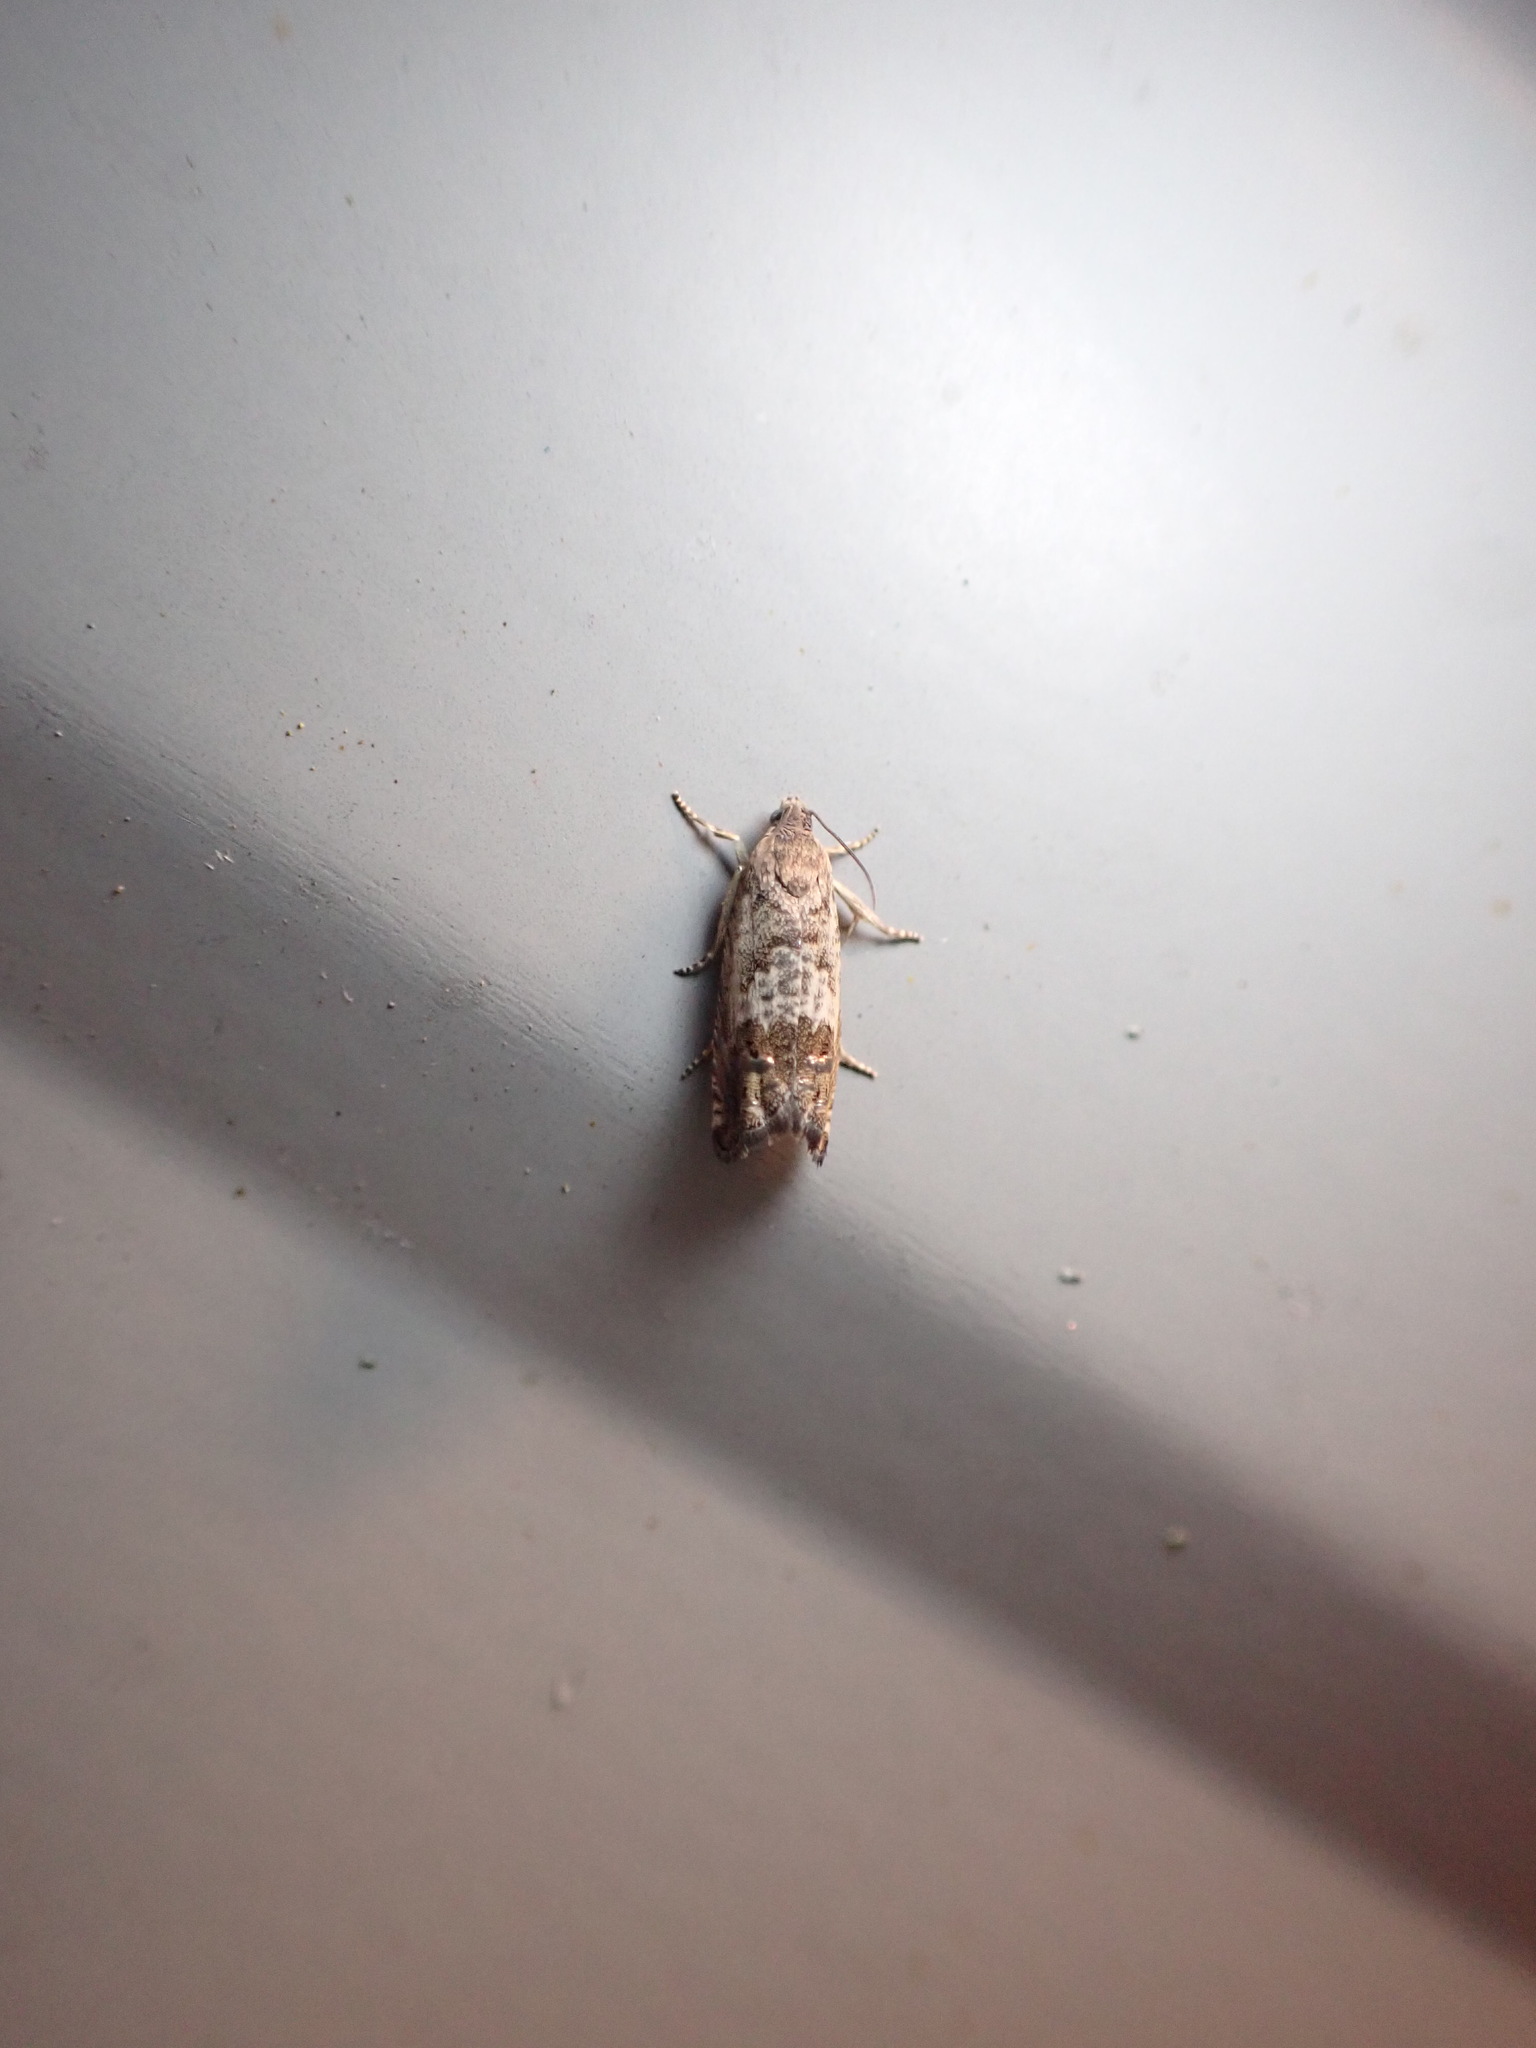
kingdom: Animalia
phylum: Arthropoda
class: Insecta
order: Lepidoptera
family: Tortricidae
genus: Cydia
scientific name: Cydia succedana
